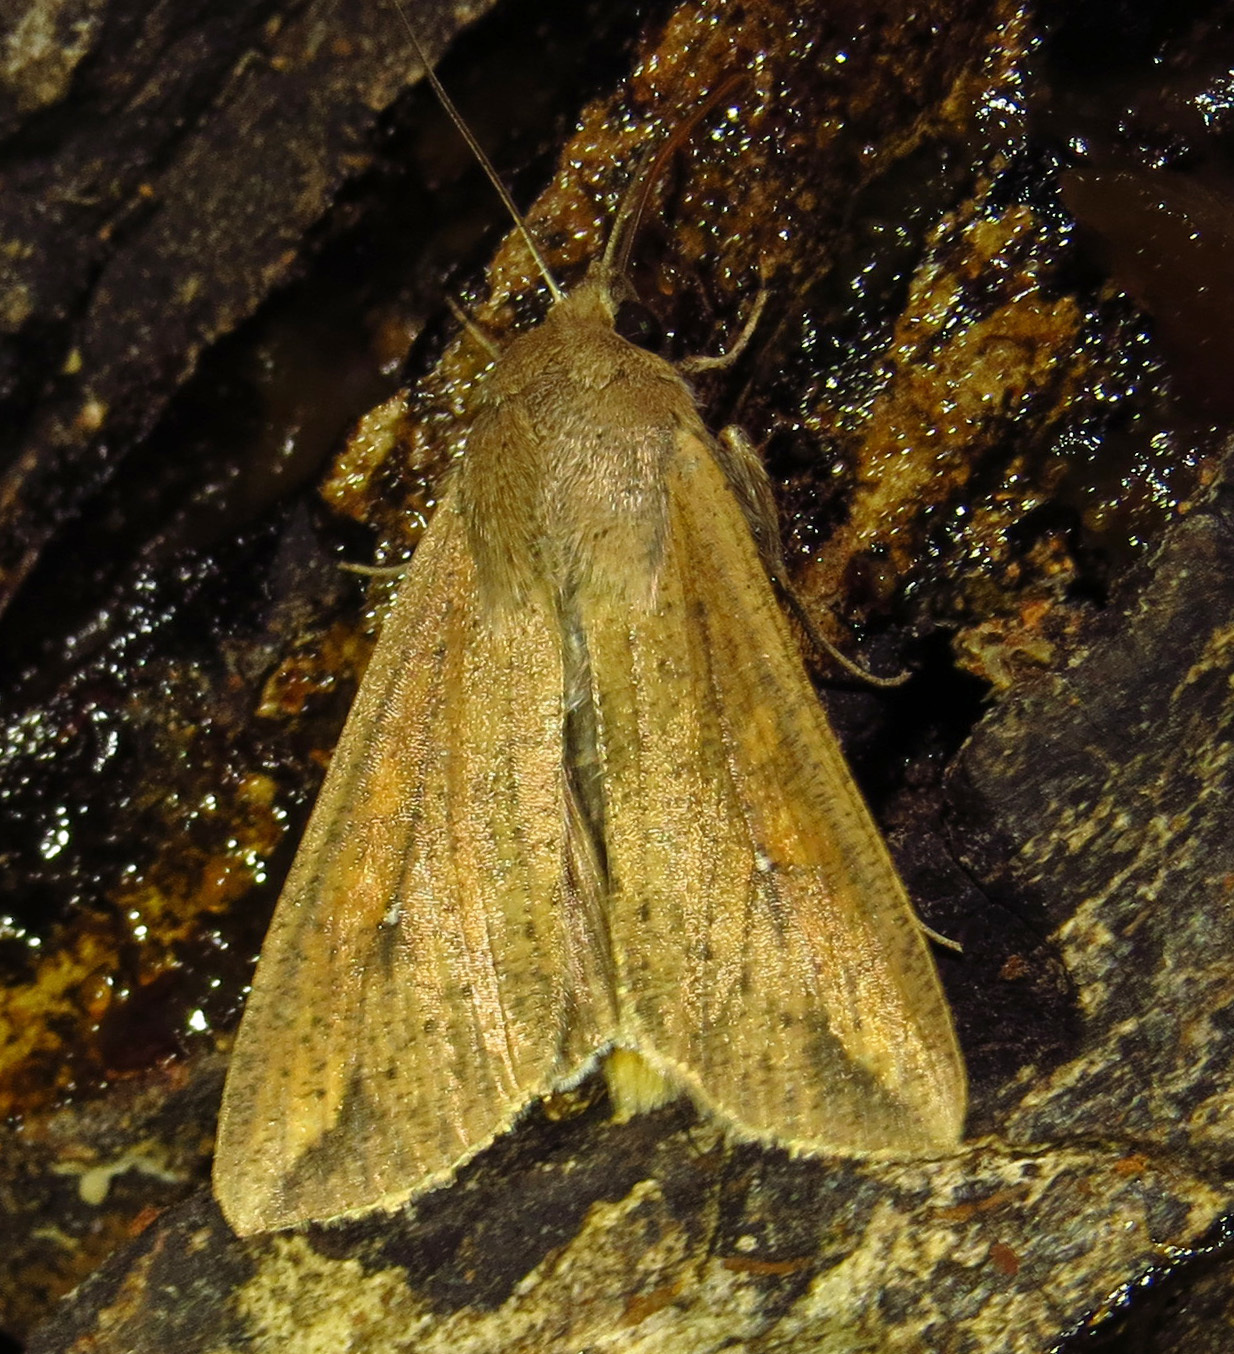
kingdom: Animalia
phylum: Arthropoda
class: Insecta
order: Lepidoptera
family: Noctuidae
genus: Mythimna
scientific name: Mythimna unipuncta
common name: White-speck
